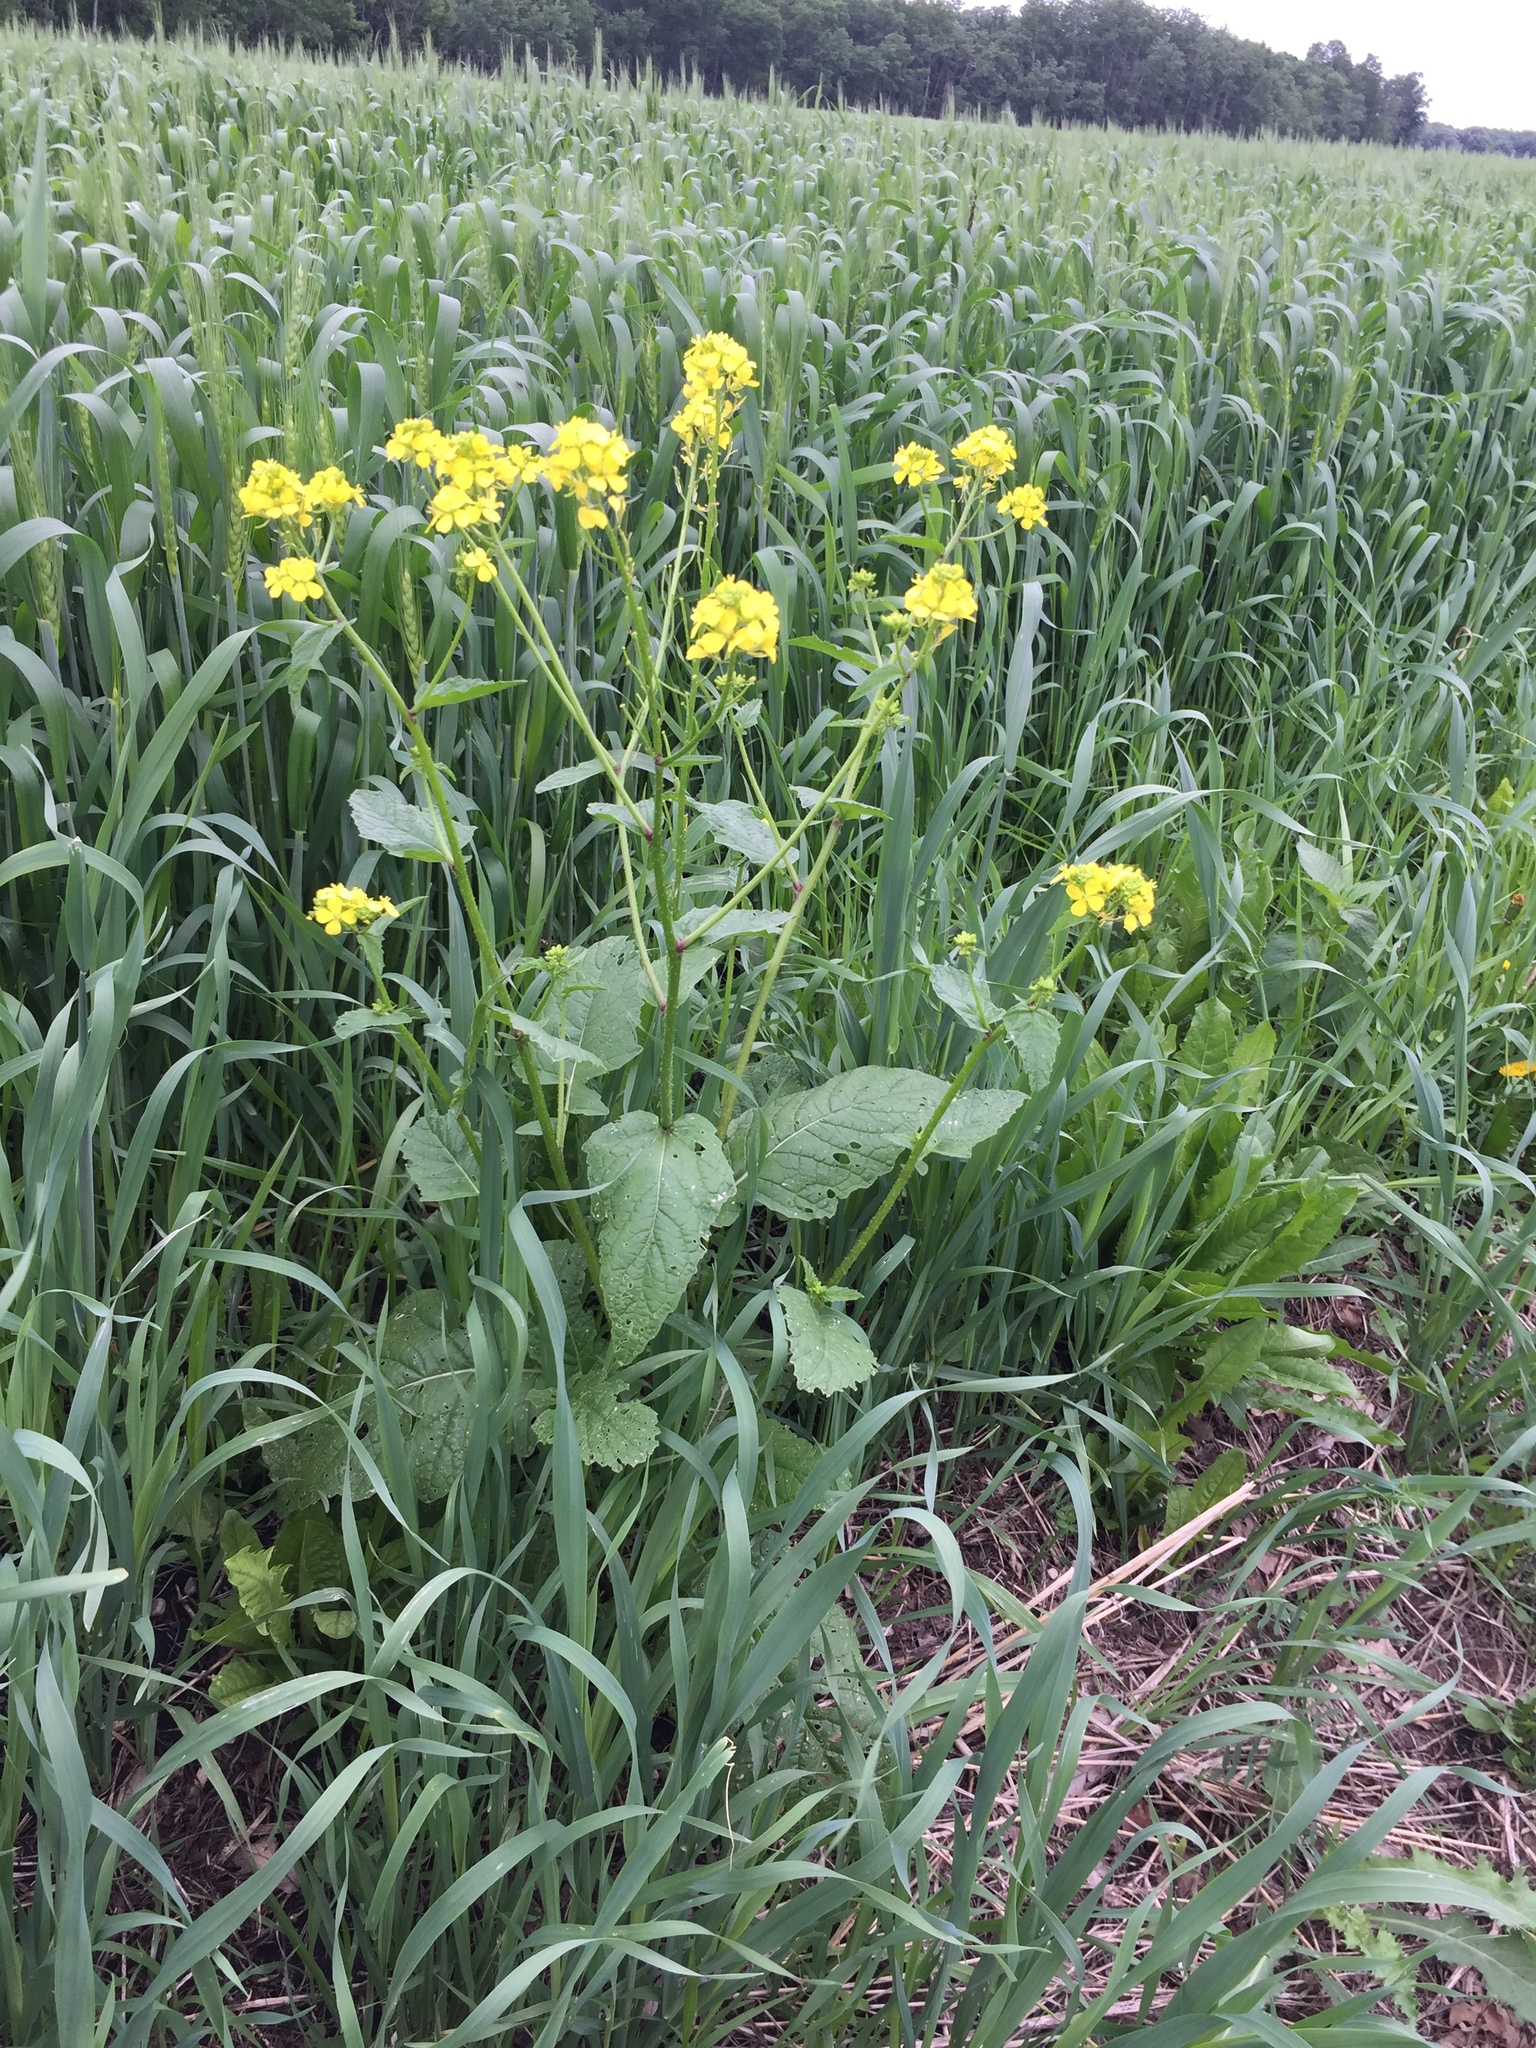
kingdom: Plantae
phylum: Tracheophyta
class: Magnoliopsida
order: Brassicales
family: Brassicaceae
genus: Sinapis
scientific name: Sinapis arvensis
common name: Charlock
